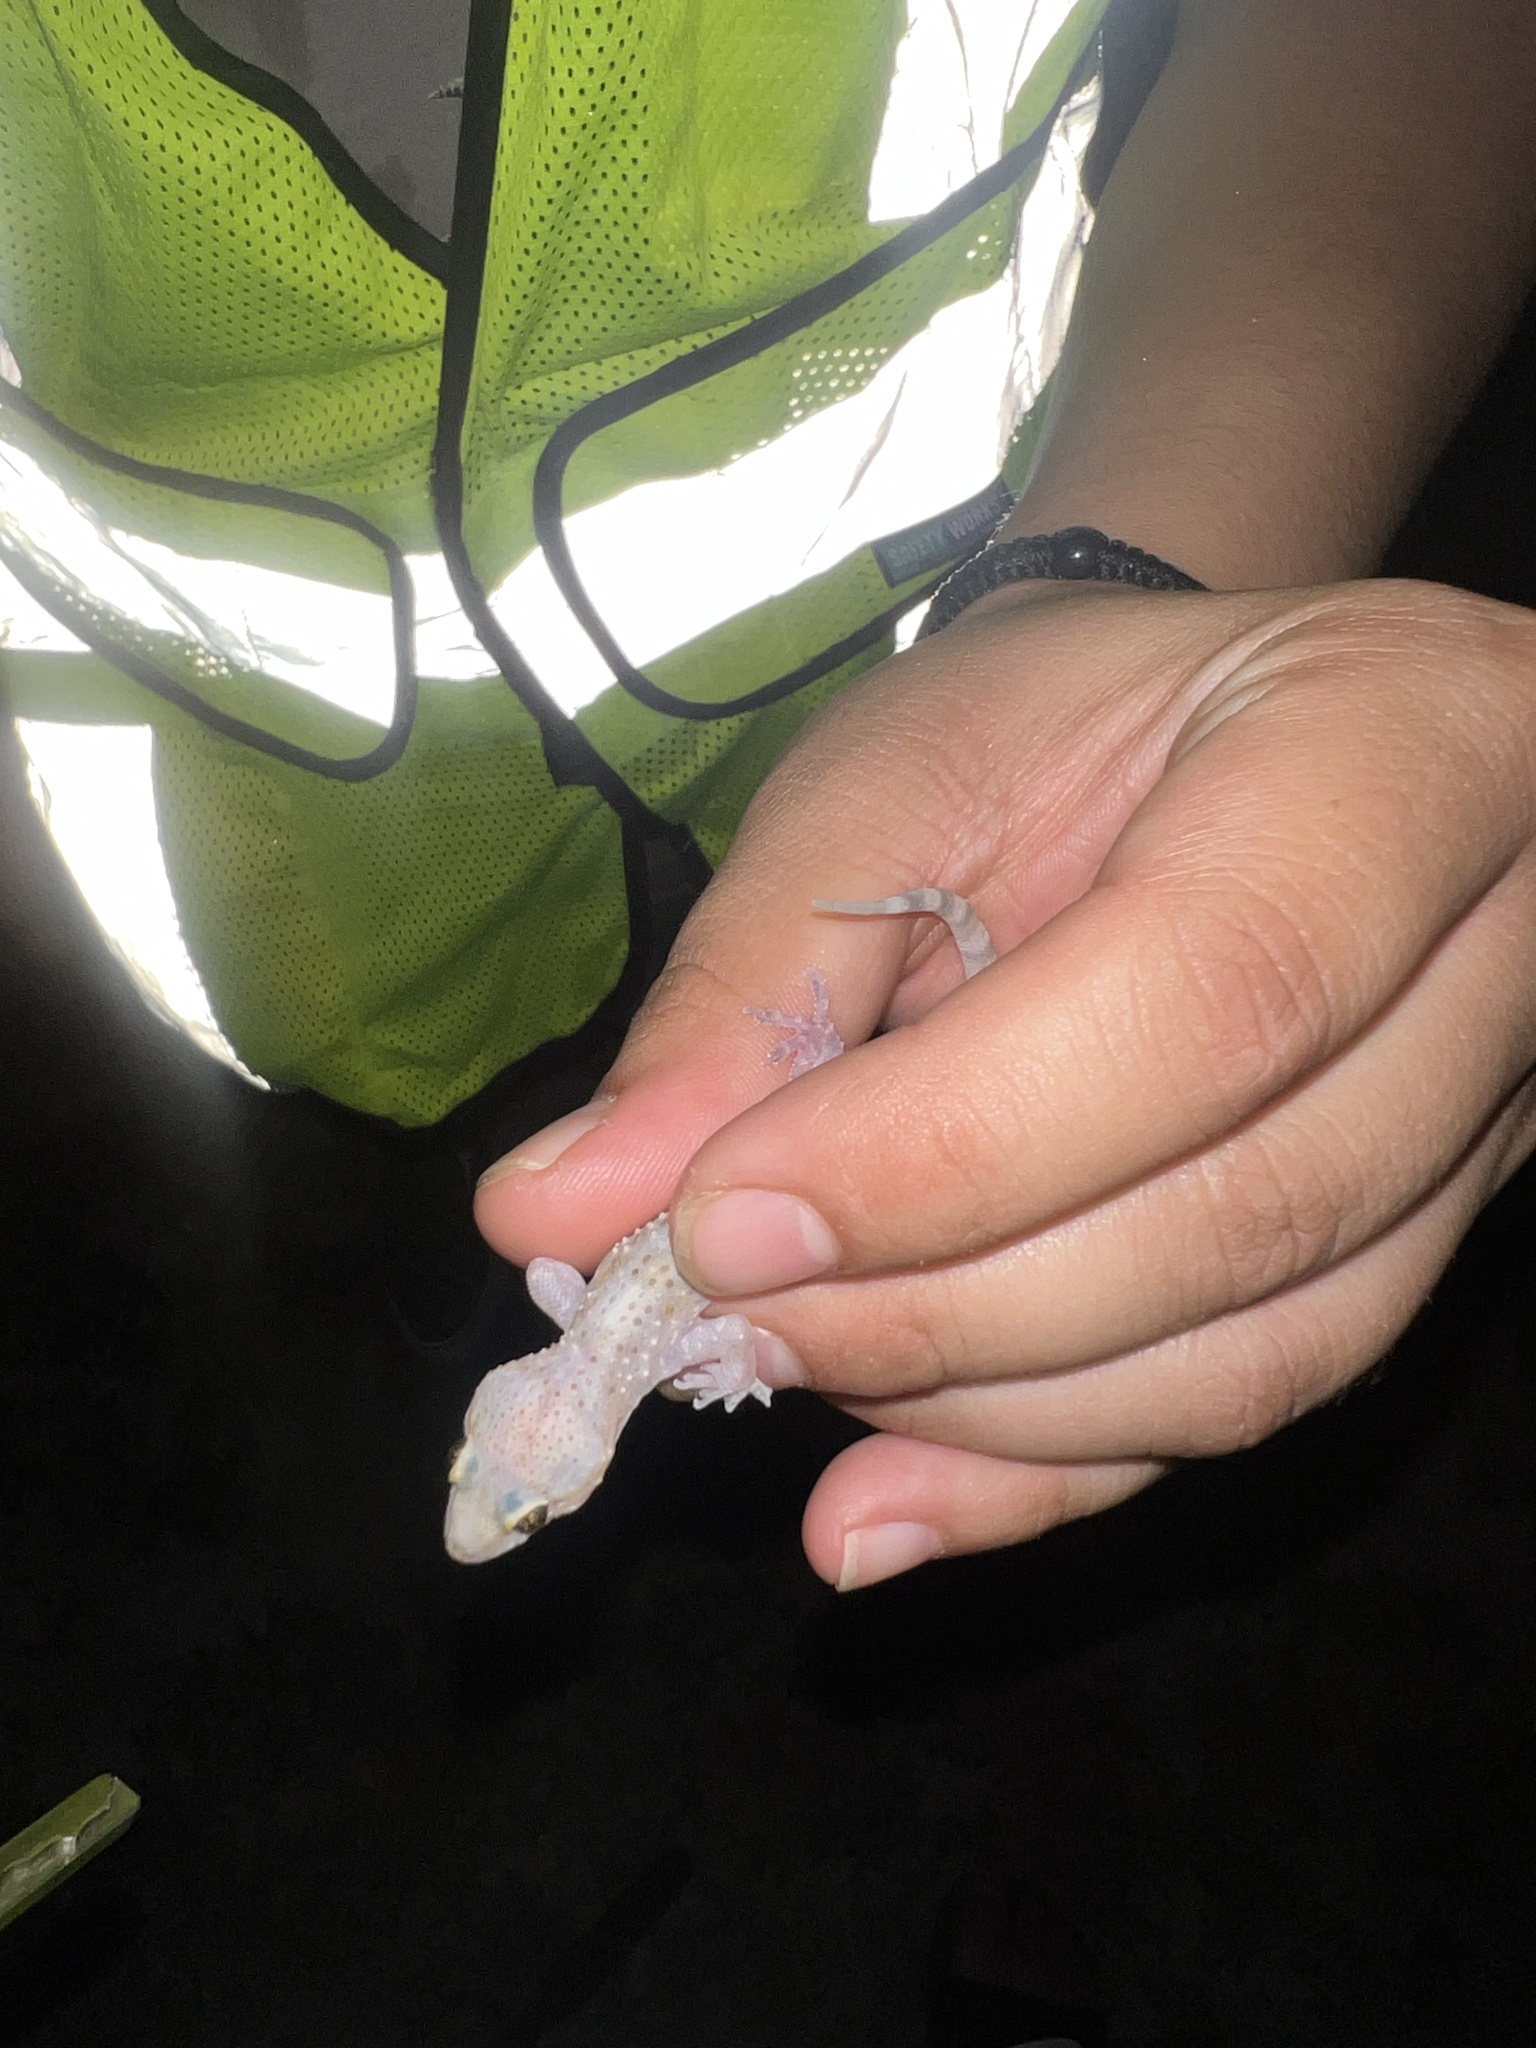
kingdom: Animalia
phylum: Chordata
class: Squamata
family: Gekkonidae
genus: Hemidactylus
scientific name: Hemidactylus turcicus
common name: Turkish gecko
